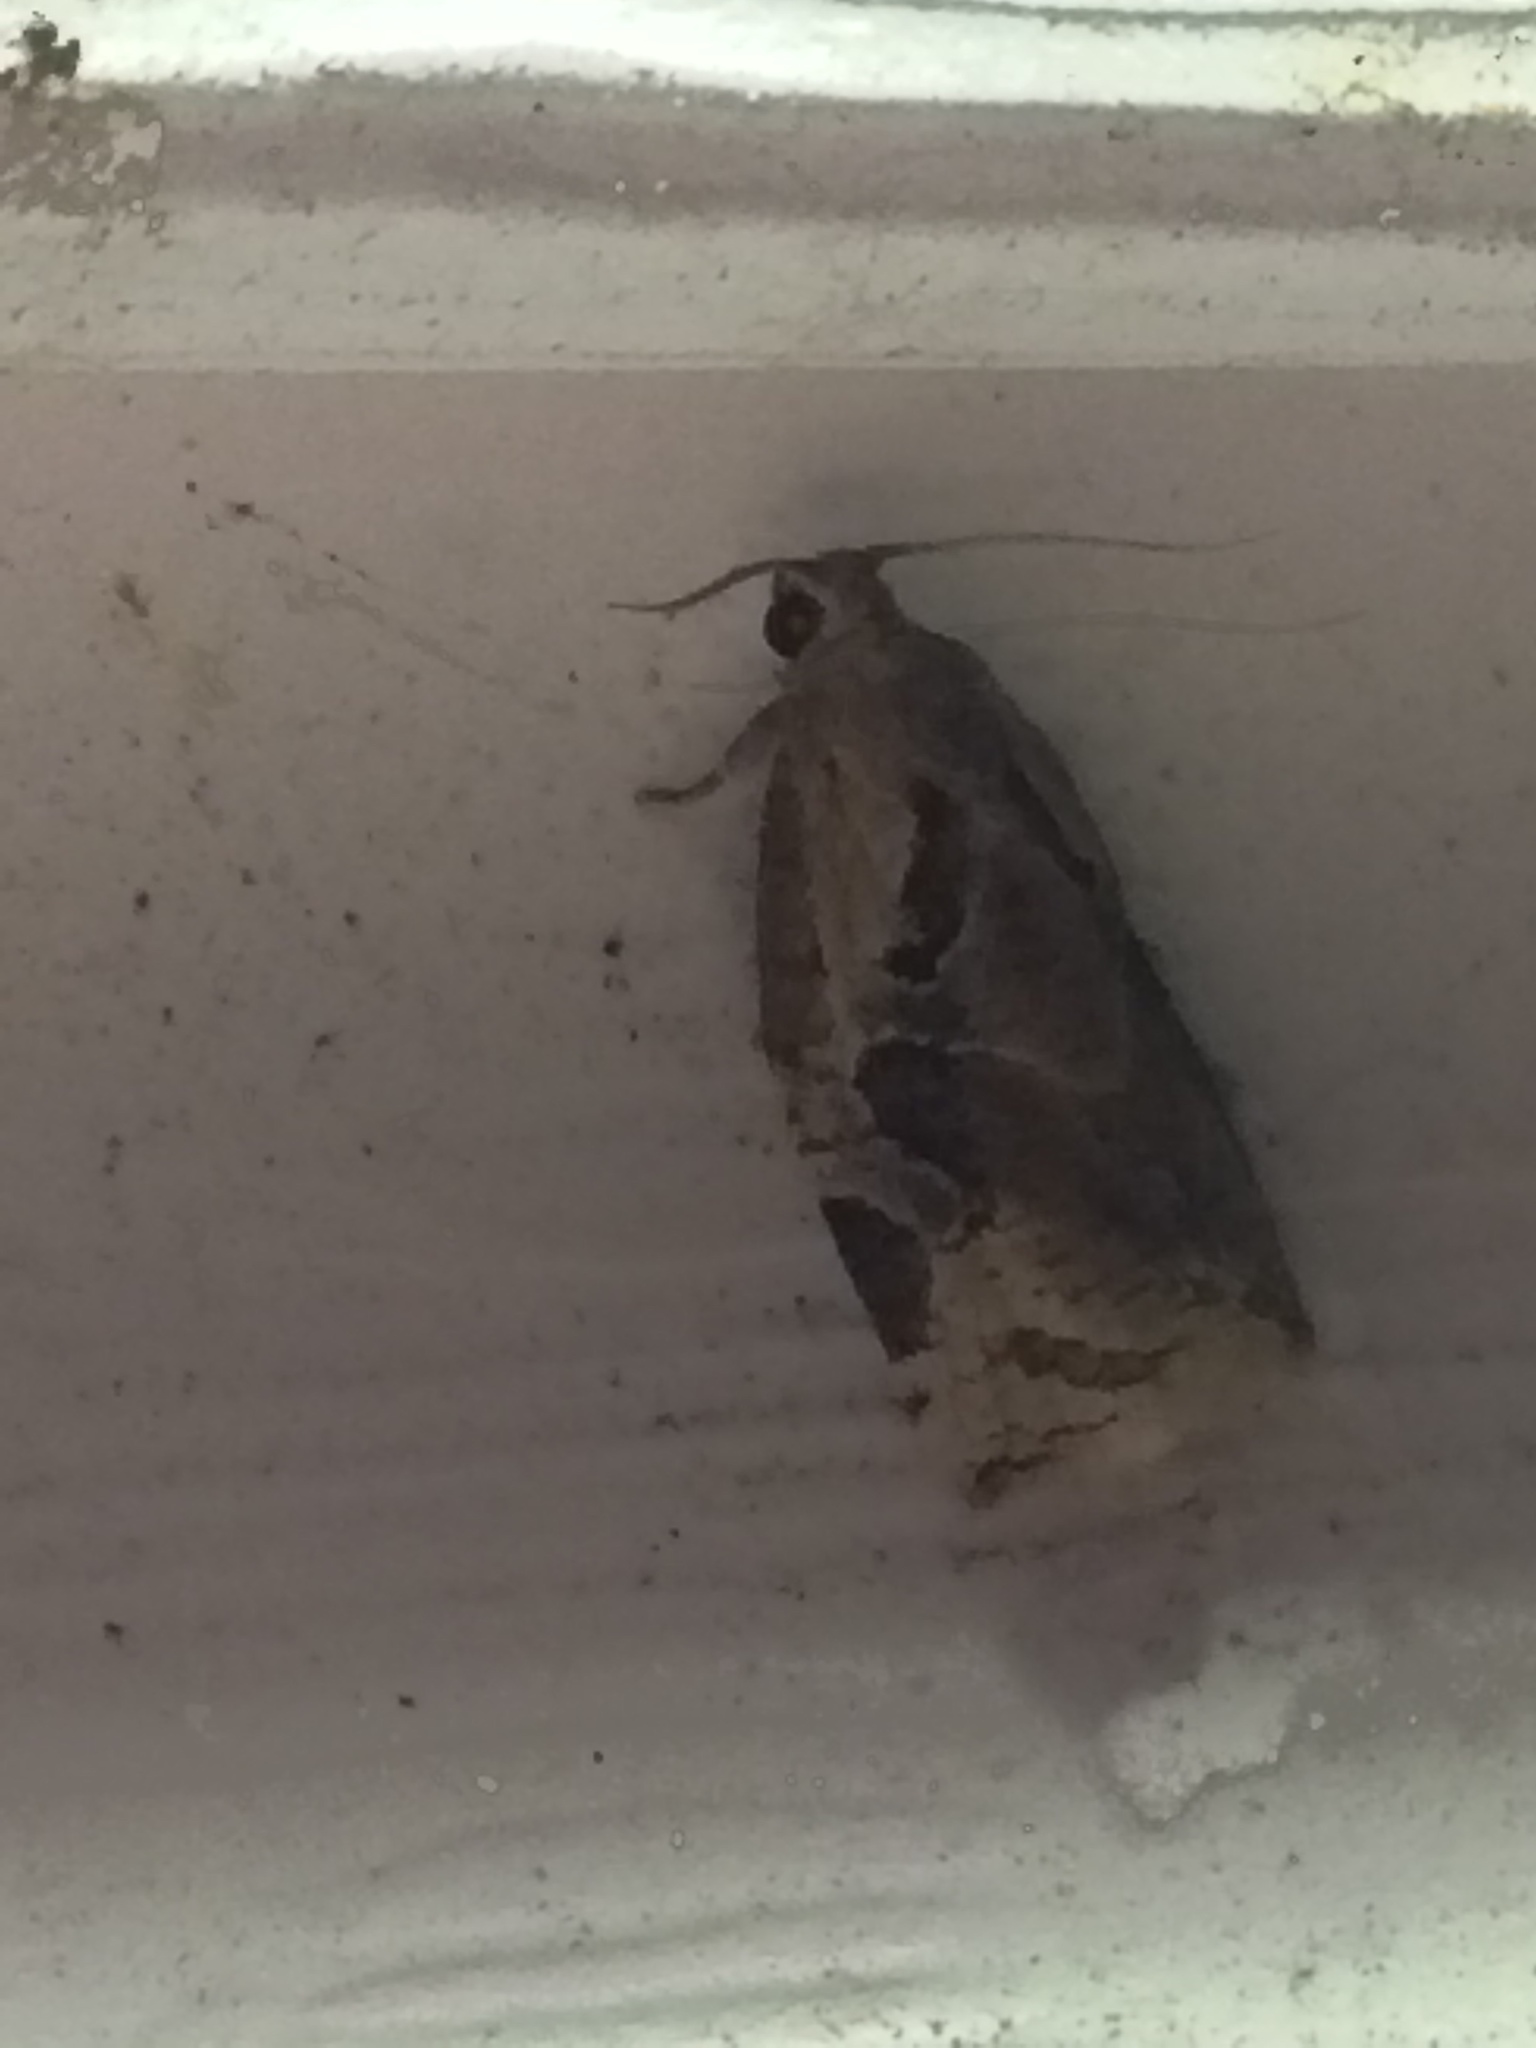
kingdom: Animalia
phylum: Arthropoda
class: Insecta
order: Lepidoptera
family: Tortricidae
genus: Archips
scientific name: Archips grisea
